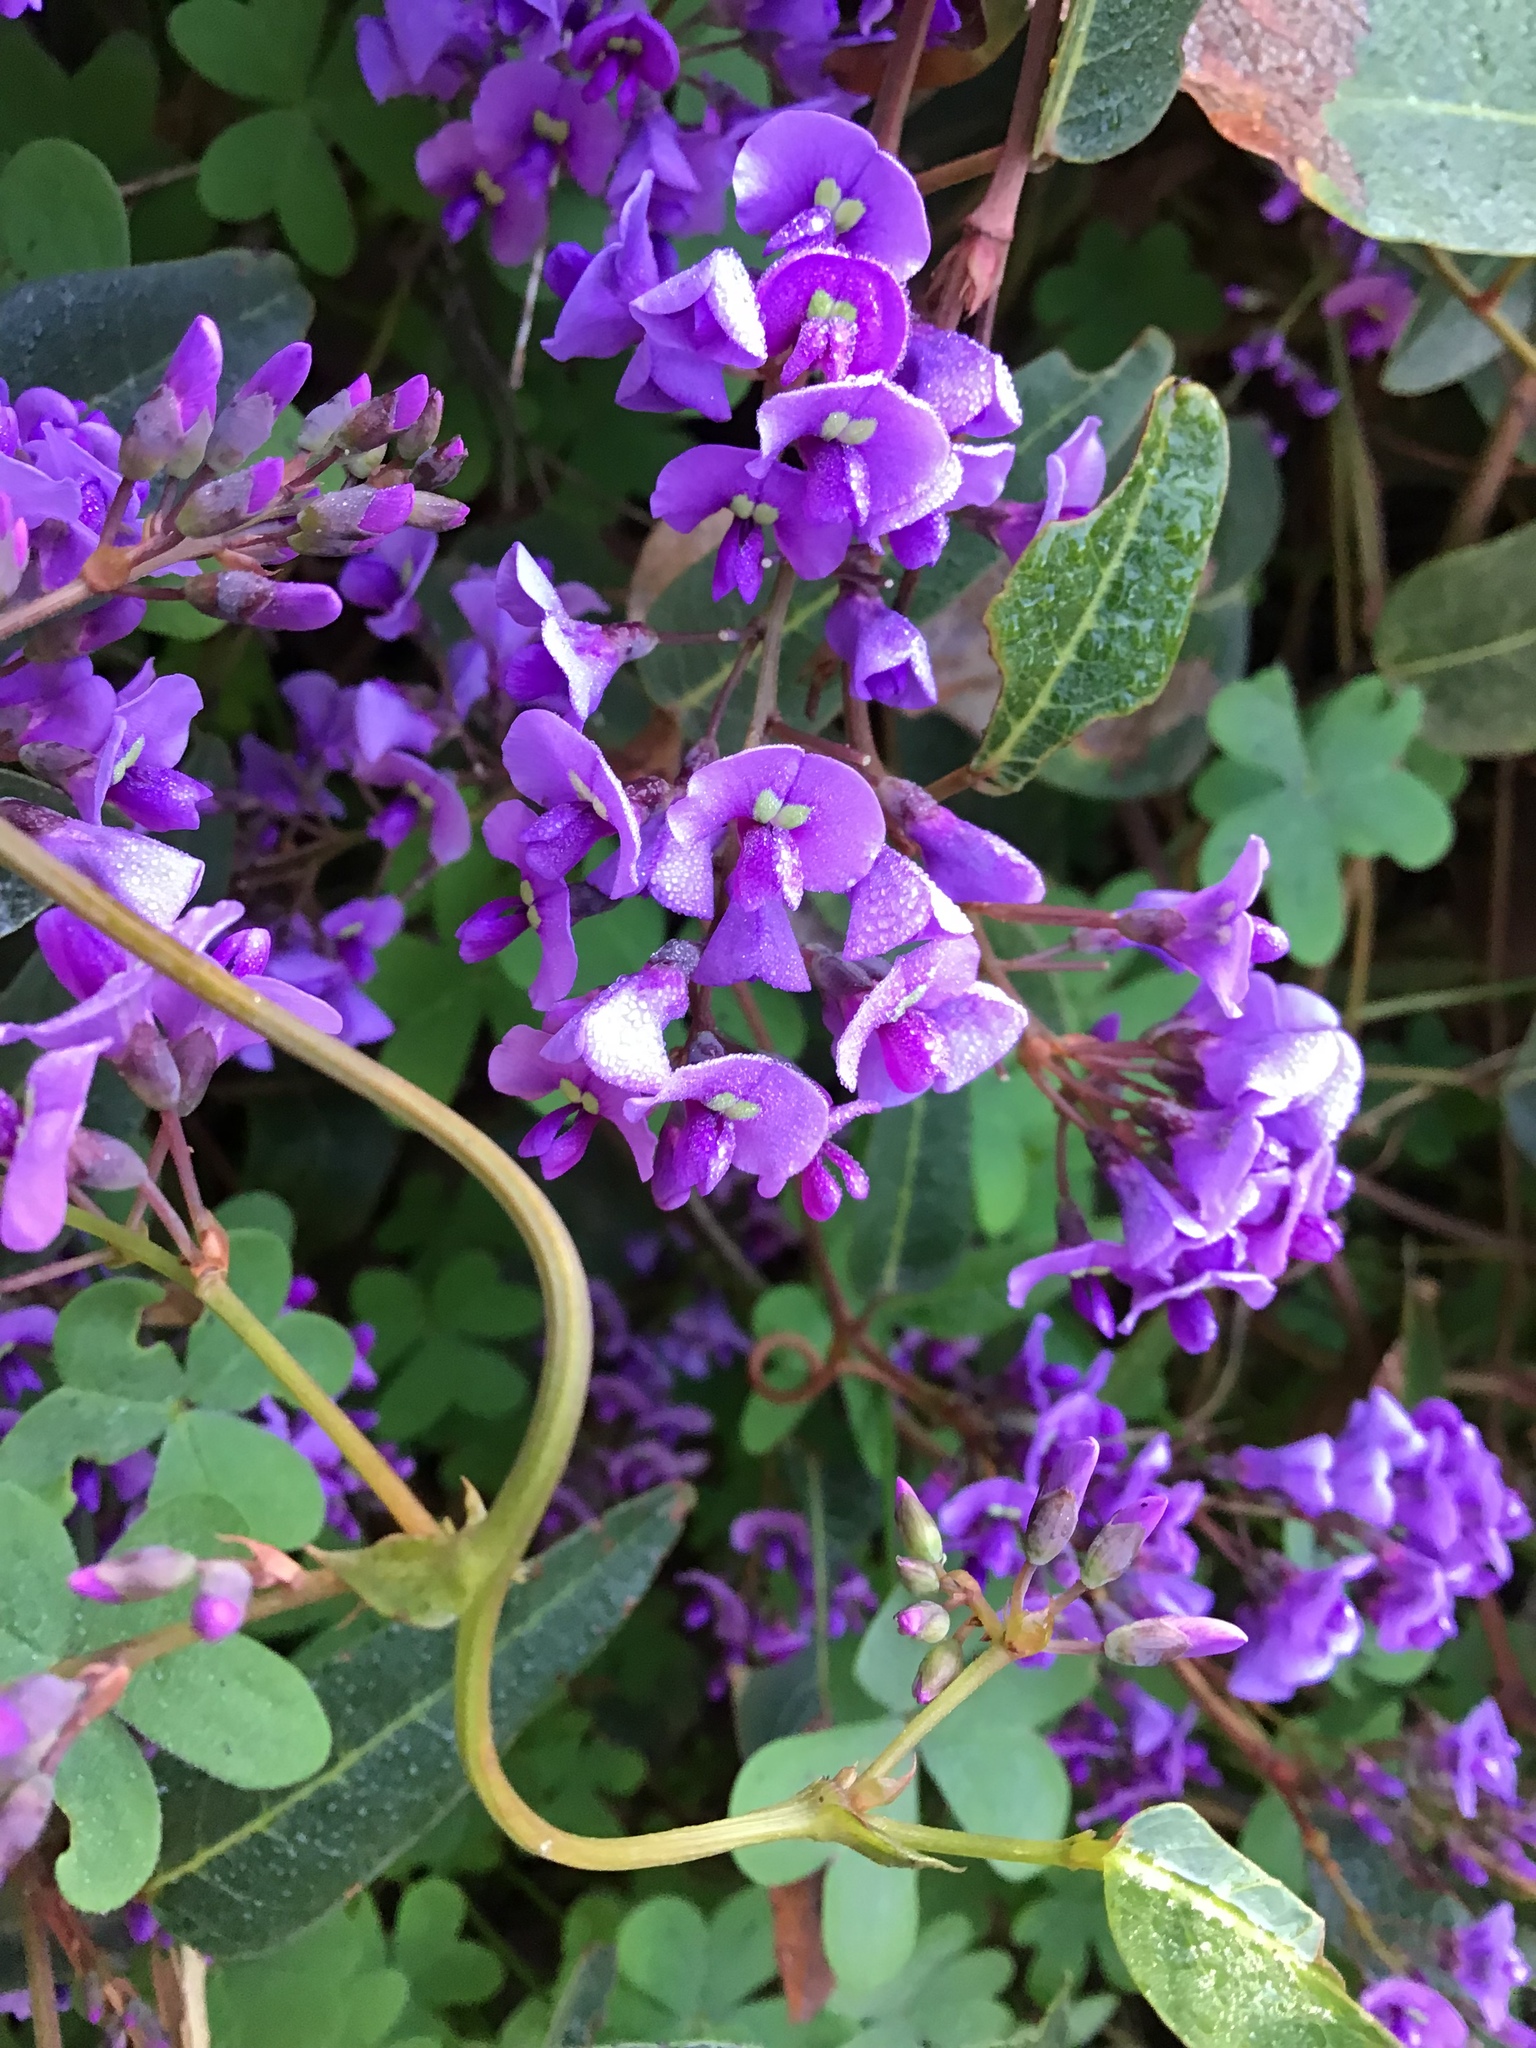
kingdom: Plantae
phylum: Tracheophyta
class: Magnoliopsida
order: Fabales
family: Fabaceae
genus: Hardenbergia
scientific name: Hardenbergia violacea
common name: Coral-pea
